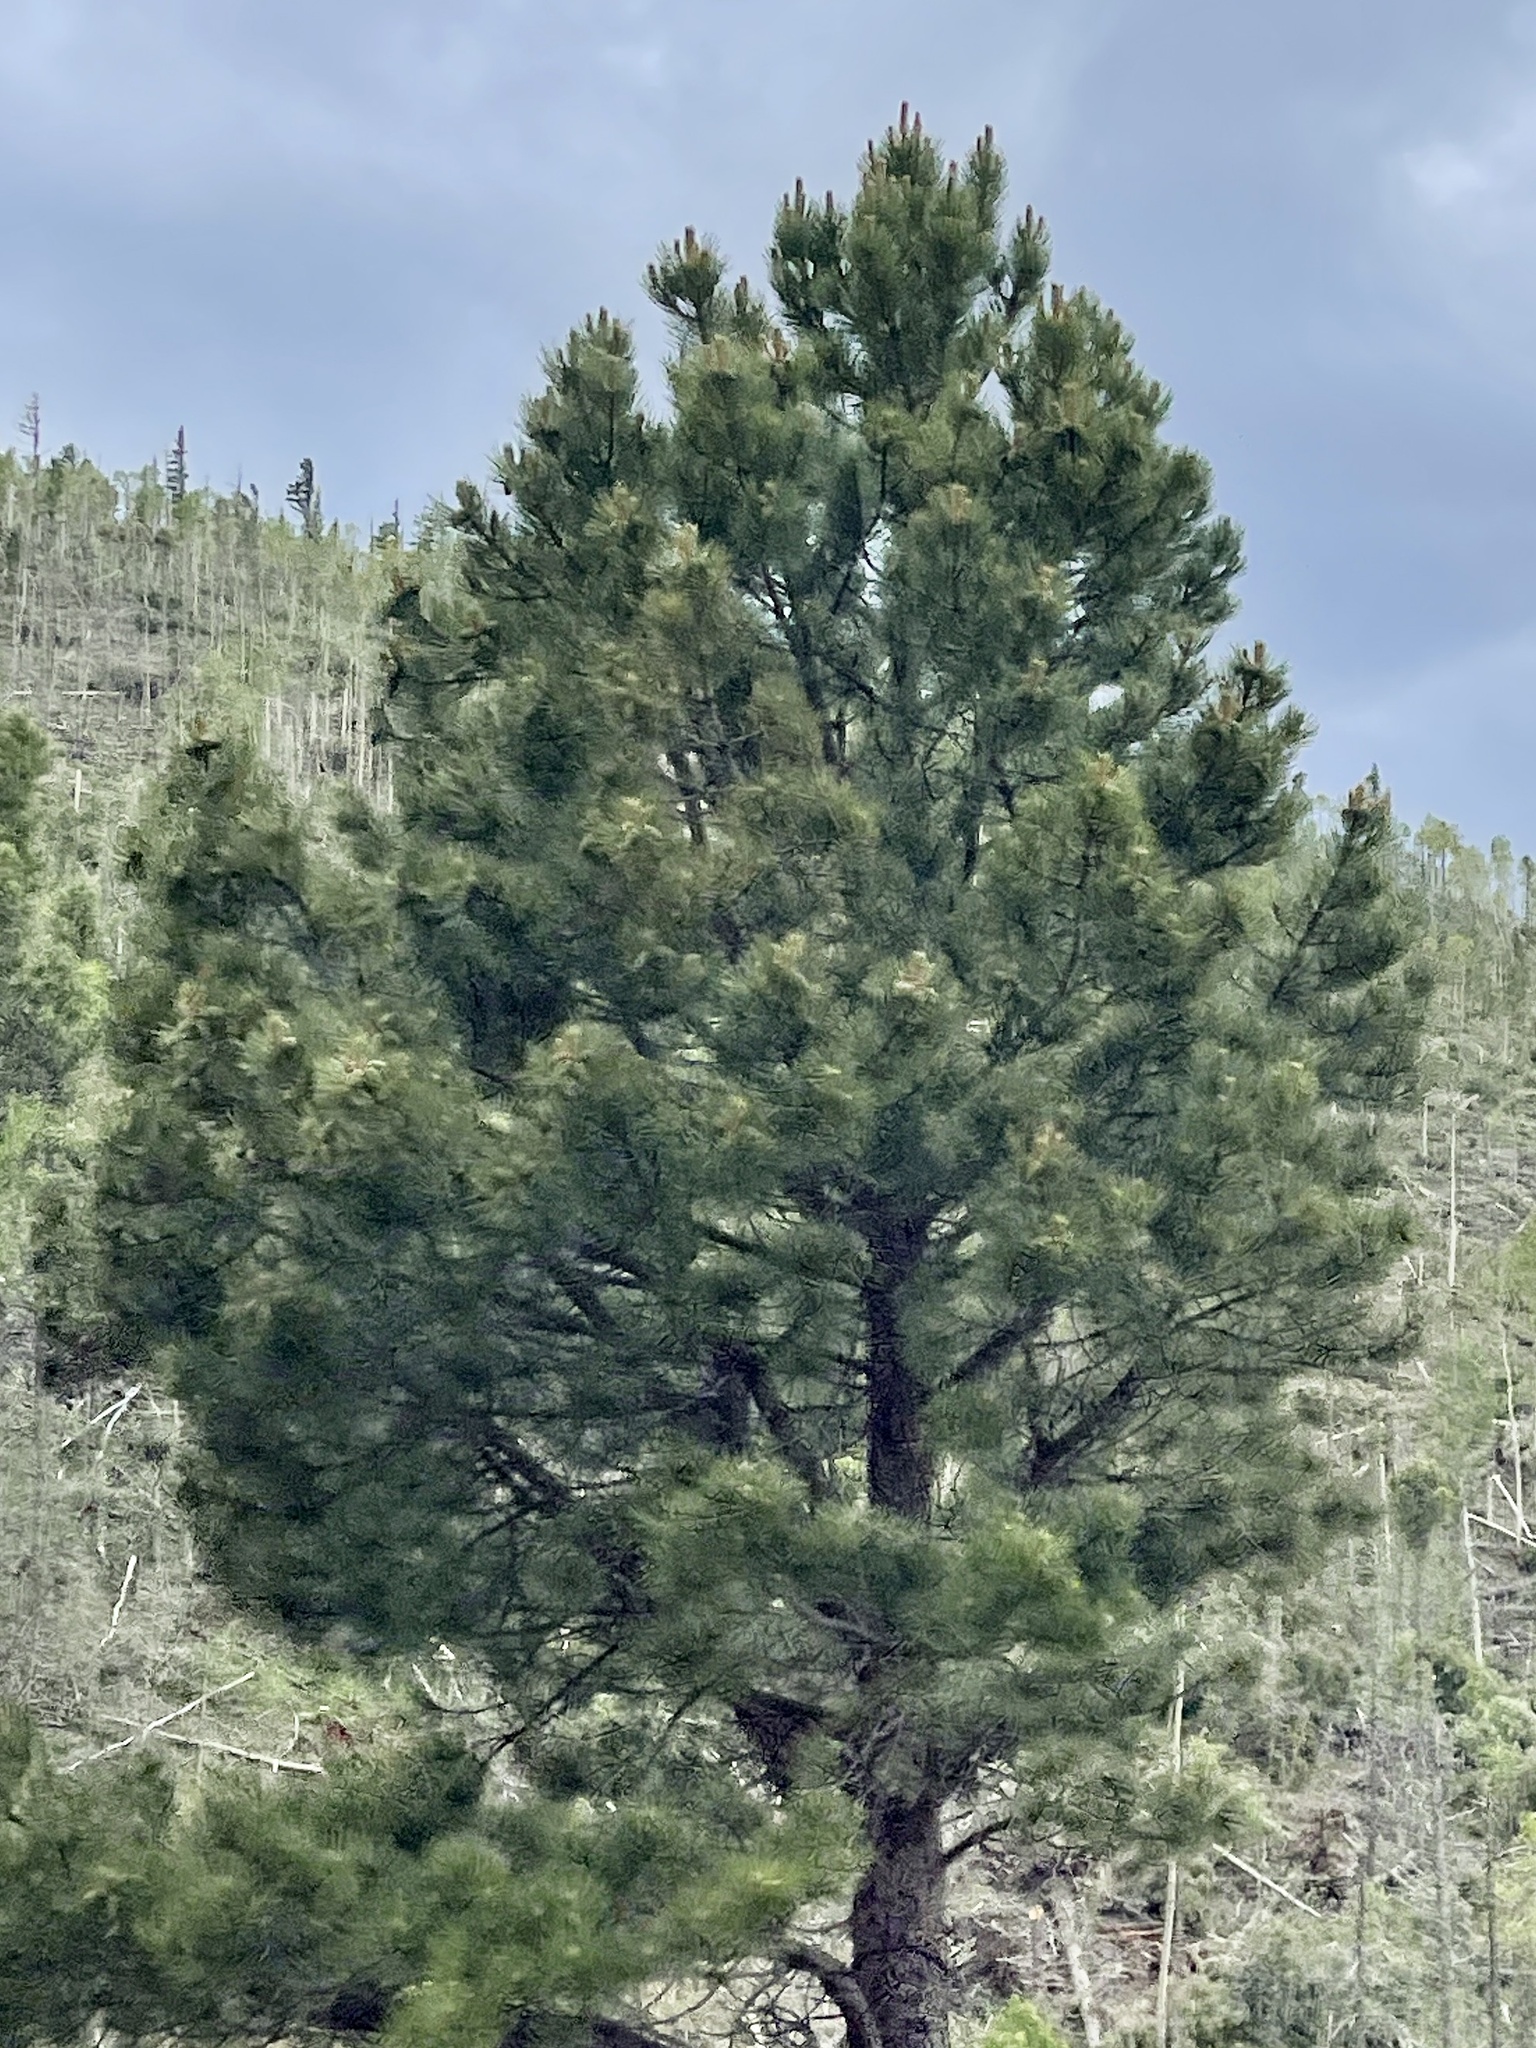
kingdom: Plantae
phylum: Tracheophyta
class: Pinopsida
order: Pinales
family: Pinaceae
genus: Pinus
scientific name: Pinus ponderosa
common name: Western yellow-pine
